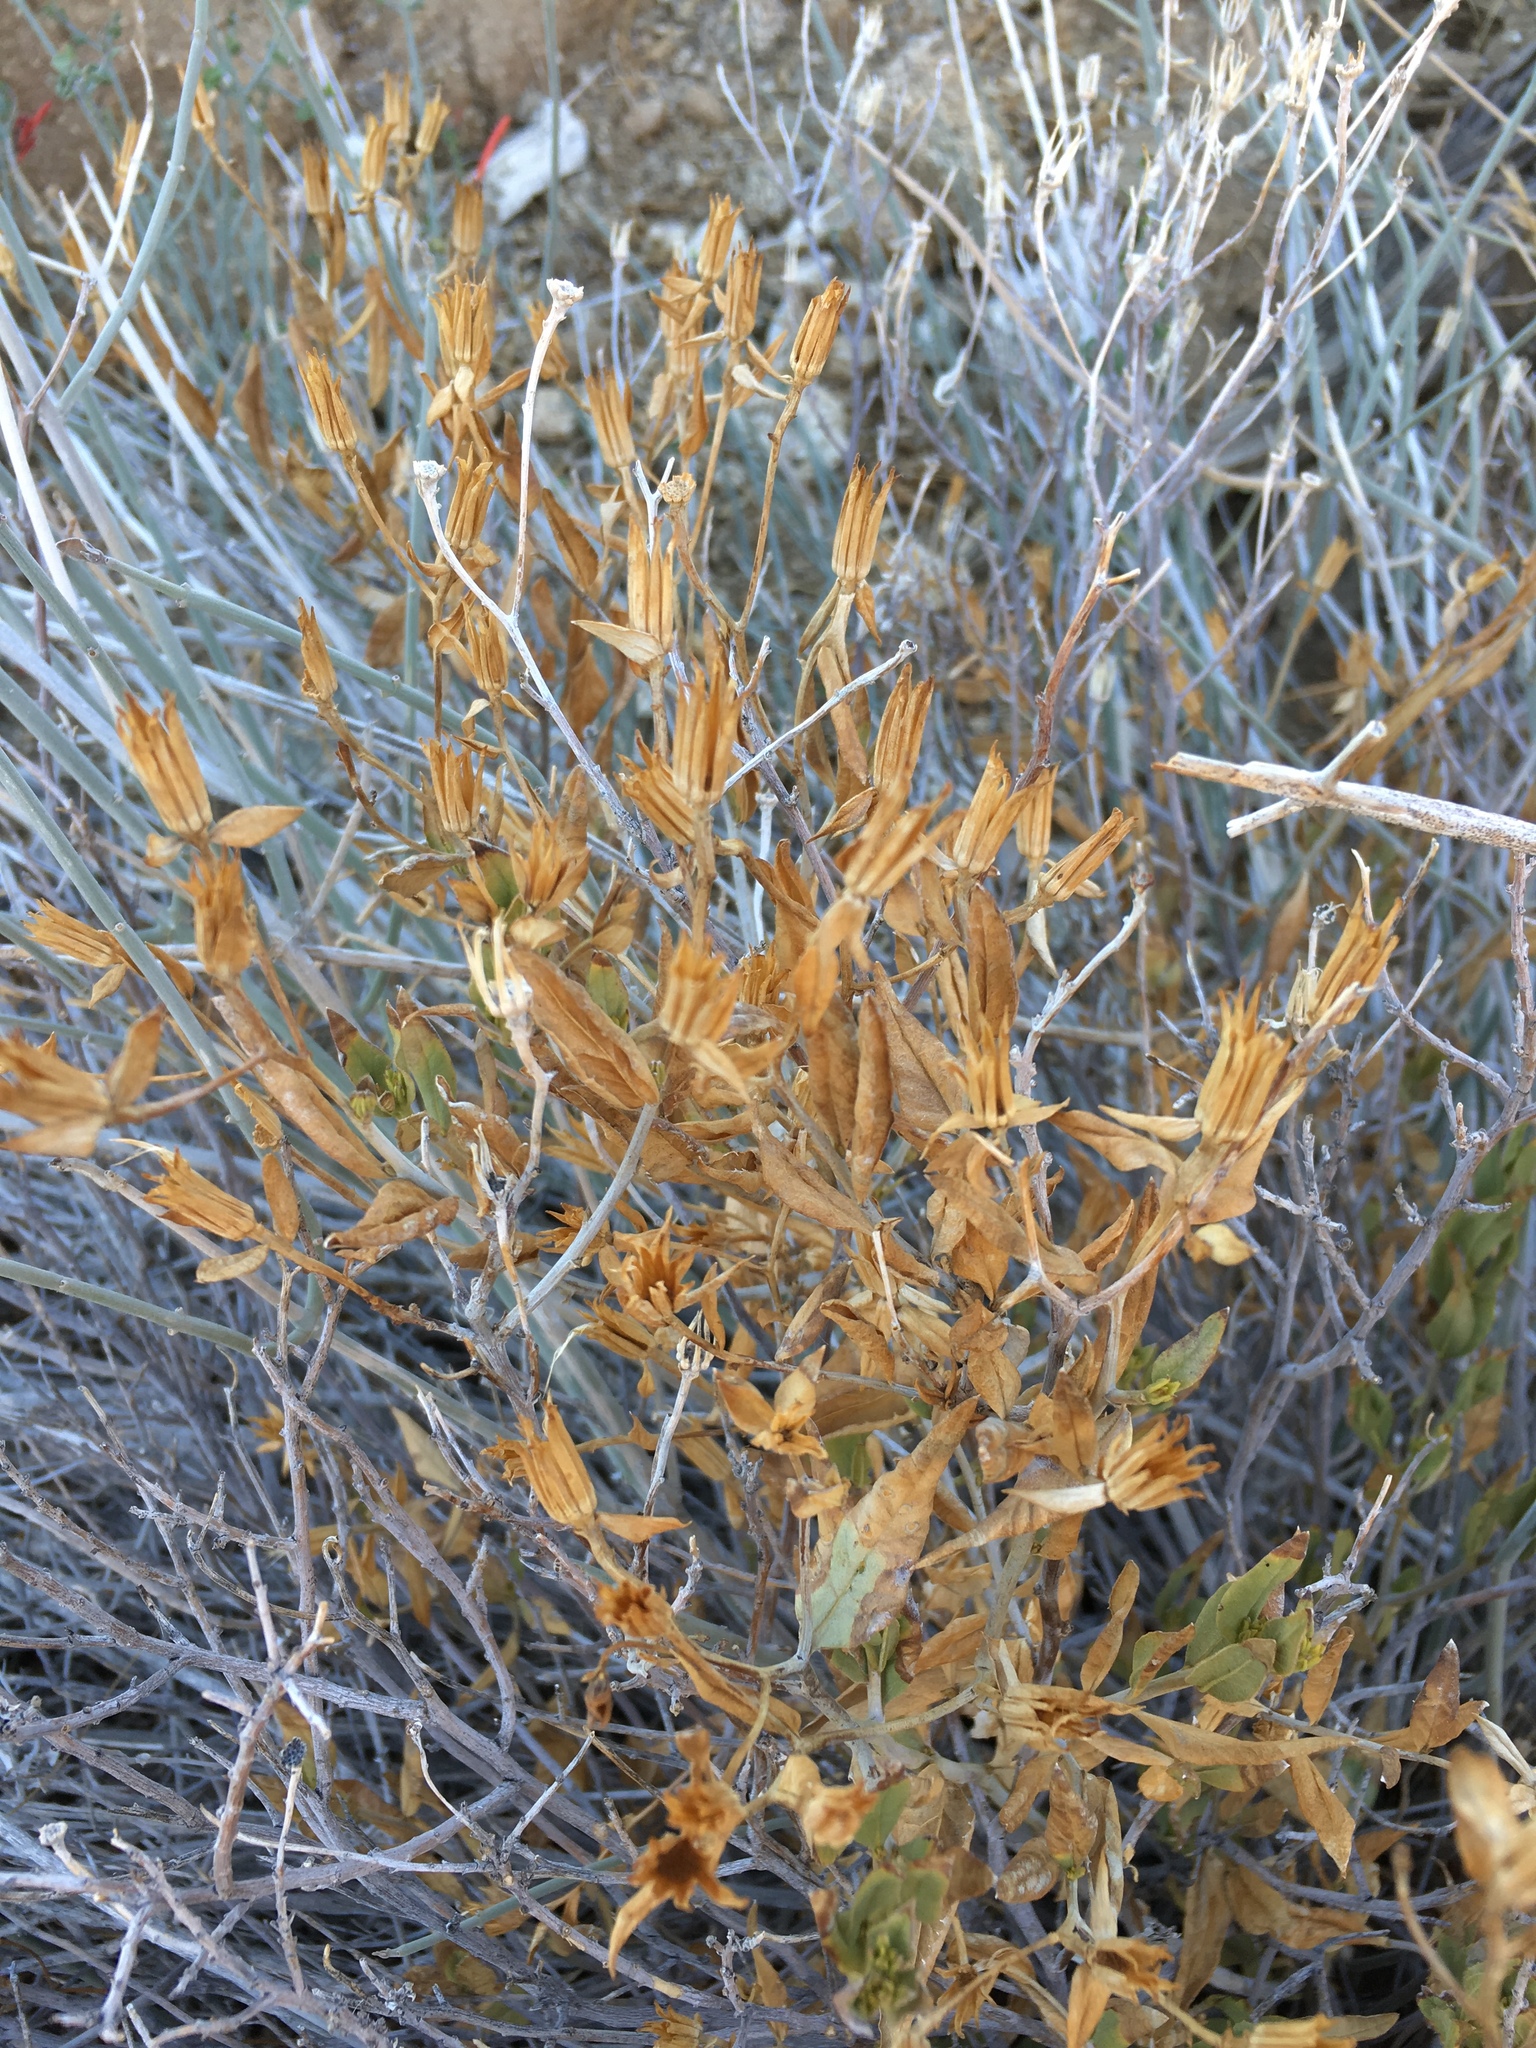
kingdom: Plantae
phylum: Tracheophyta
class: Magnoliopsida
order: Asterales
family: Asteraceae
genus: Trixis
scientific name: Trixis californica
